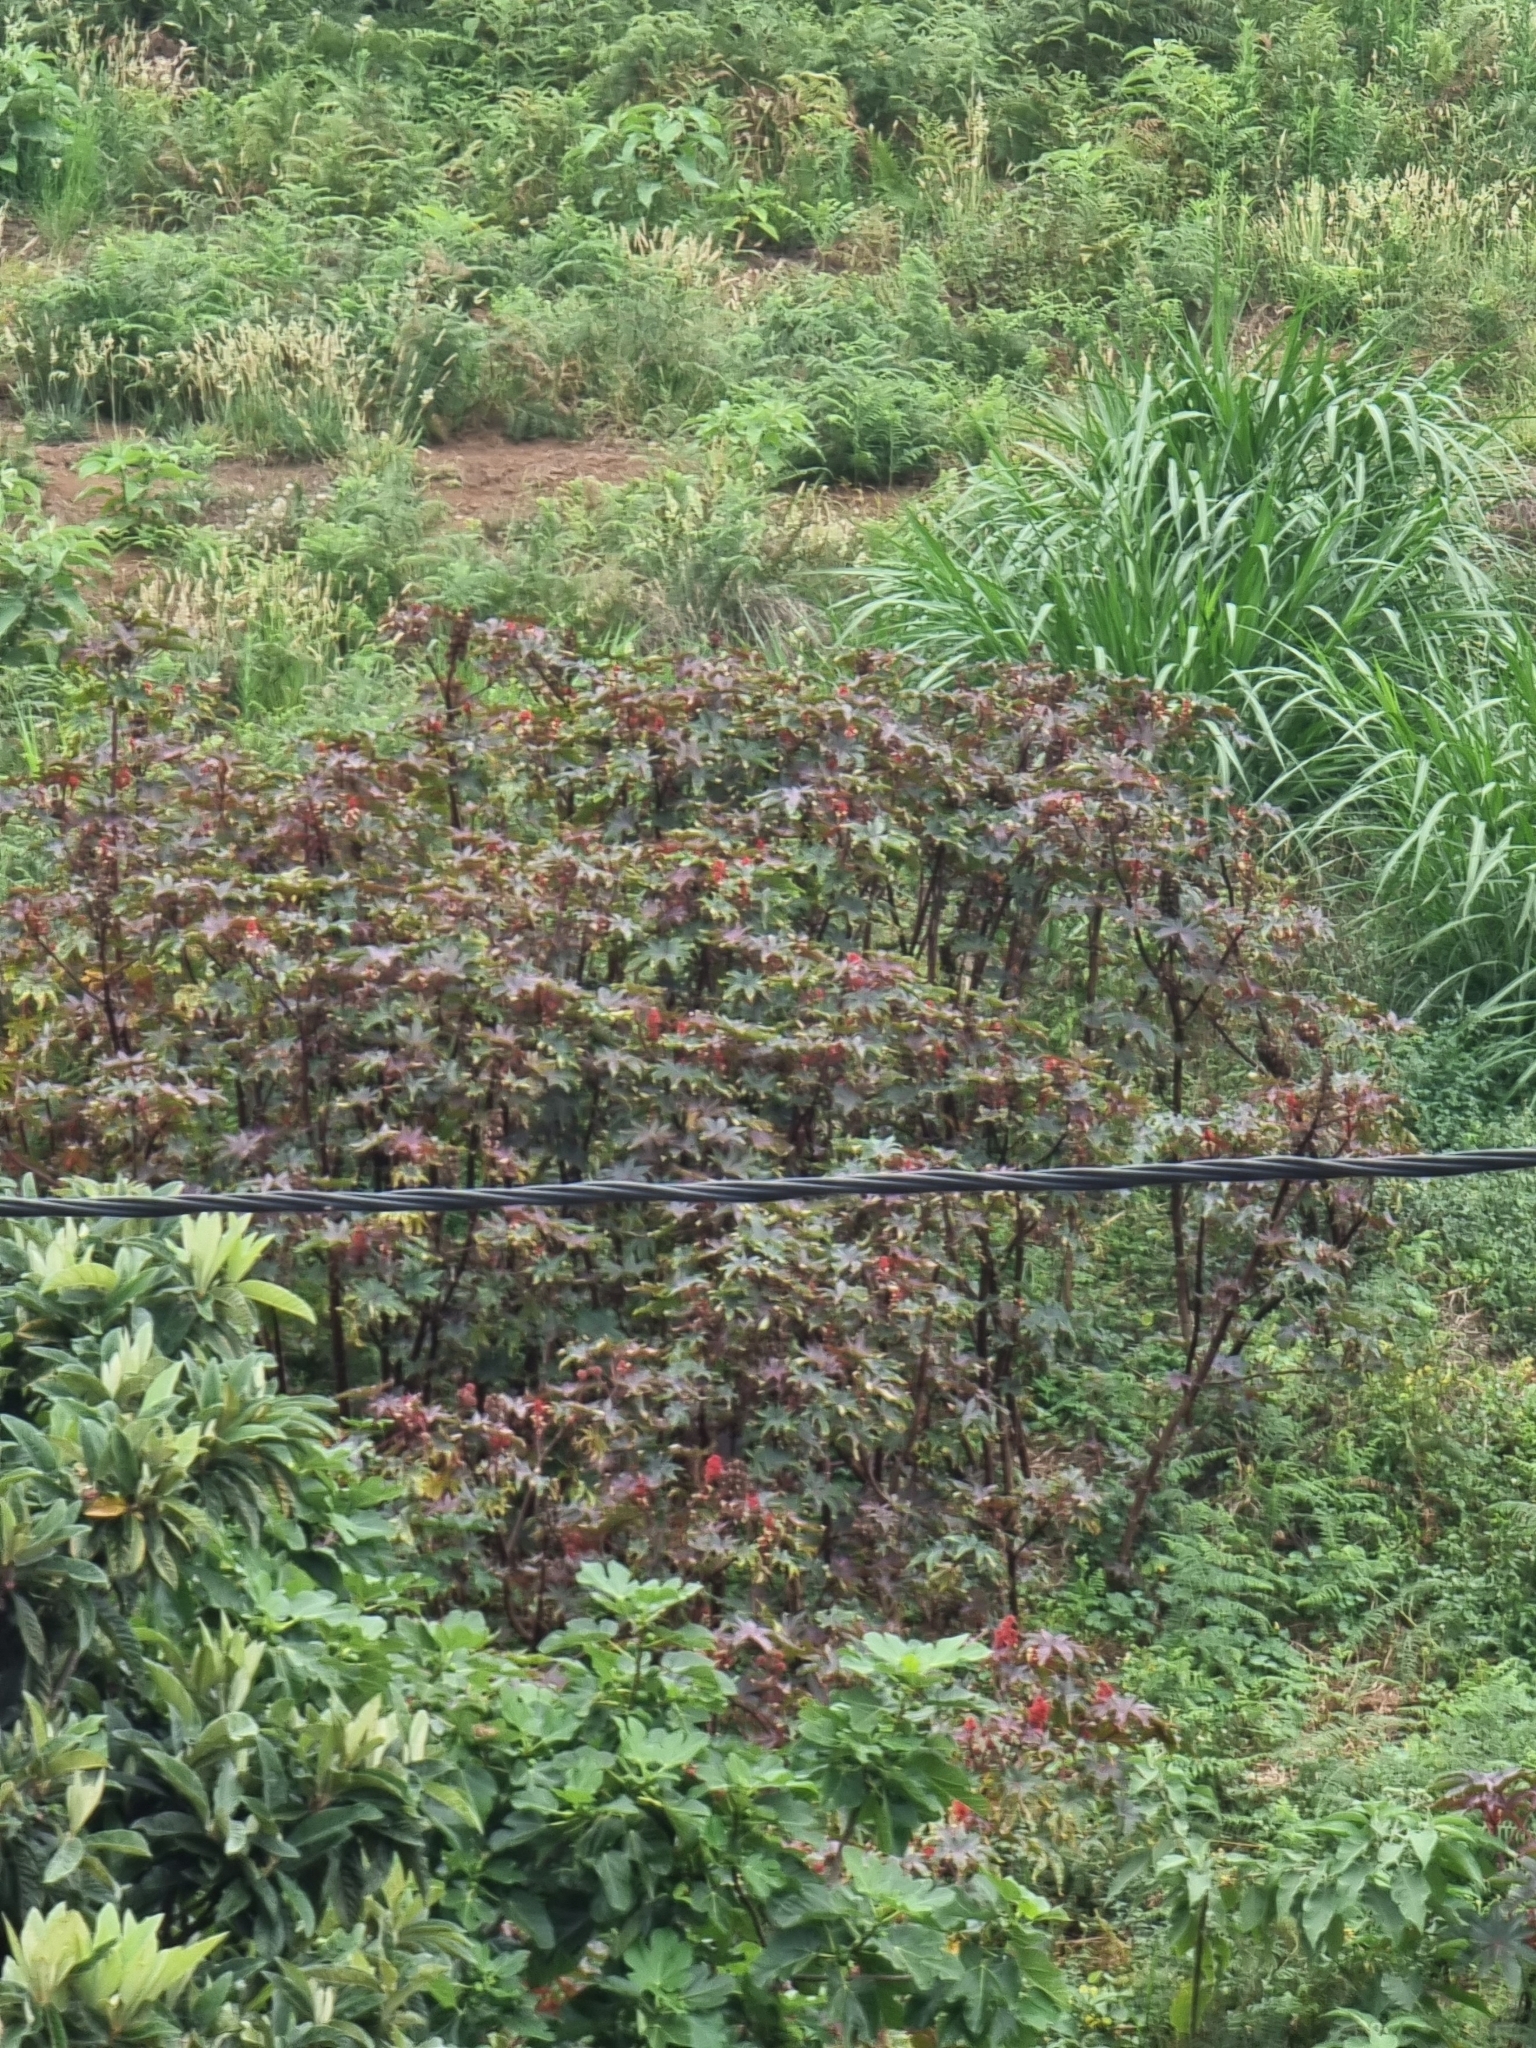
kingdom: Plantae
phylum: Tracheophyta
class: Magnoliopsida
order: Malpighiales
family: Euphorbiaceae
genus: Ricinus
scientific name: Ricinus communis
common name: Castor-oil-plant
